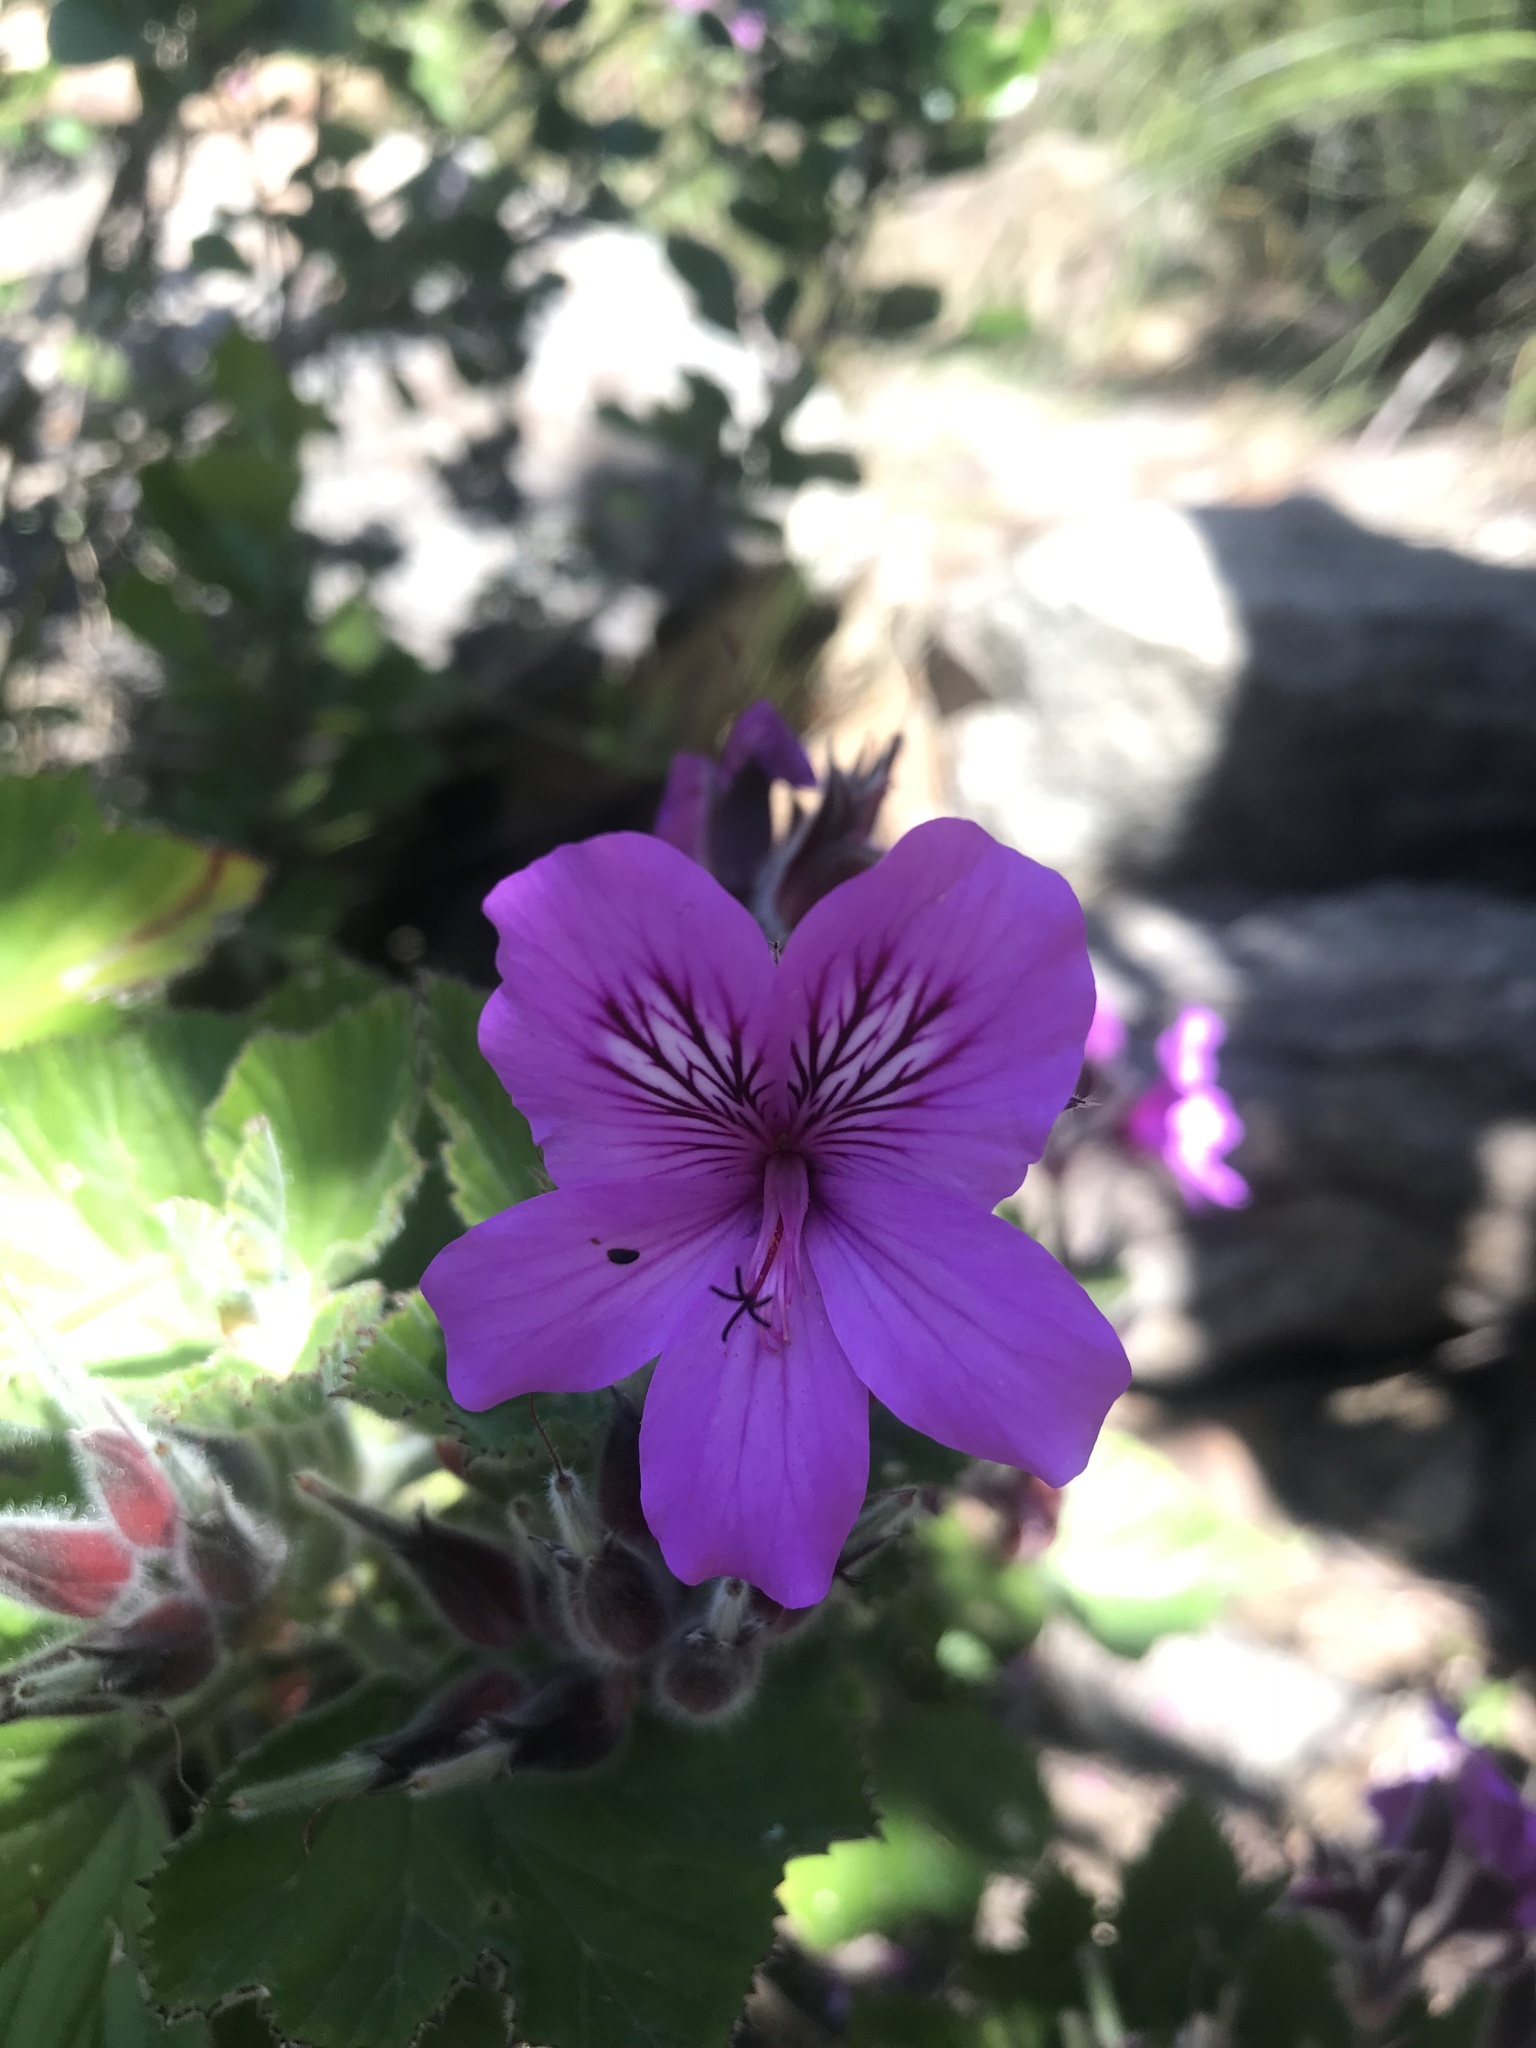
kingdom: Plantae
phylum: Tracheophyta
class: Magnoliopsida
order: Geraniales
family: Geraniaceae
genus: Pelargonium
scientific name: Pelargonium cucullatum
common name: Tree pelargonium
